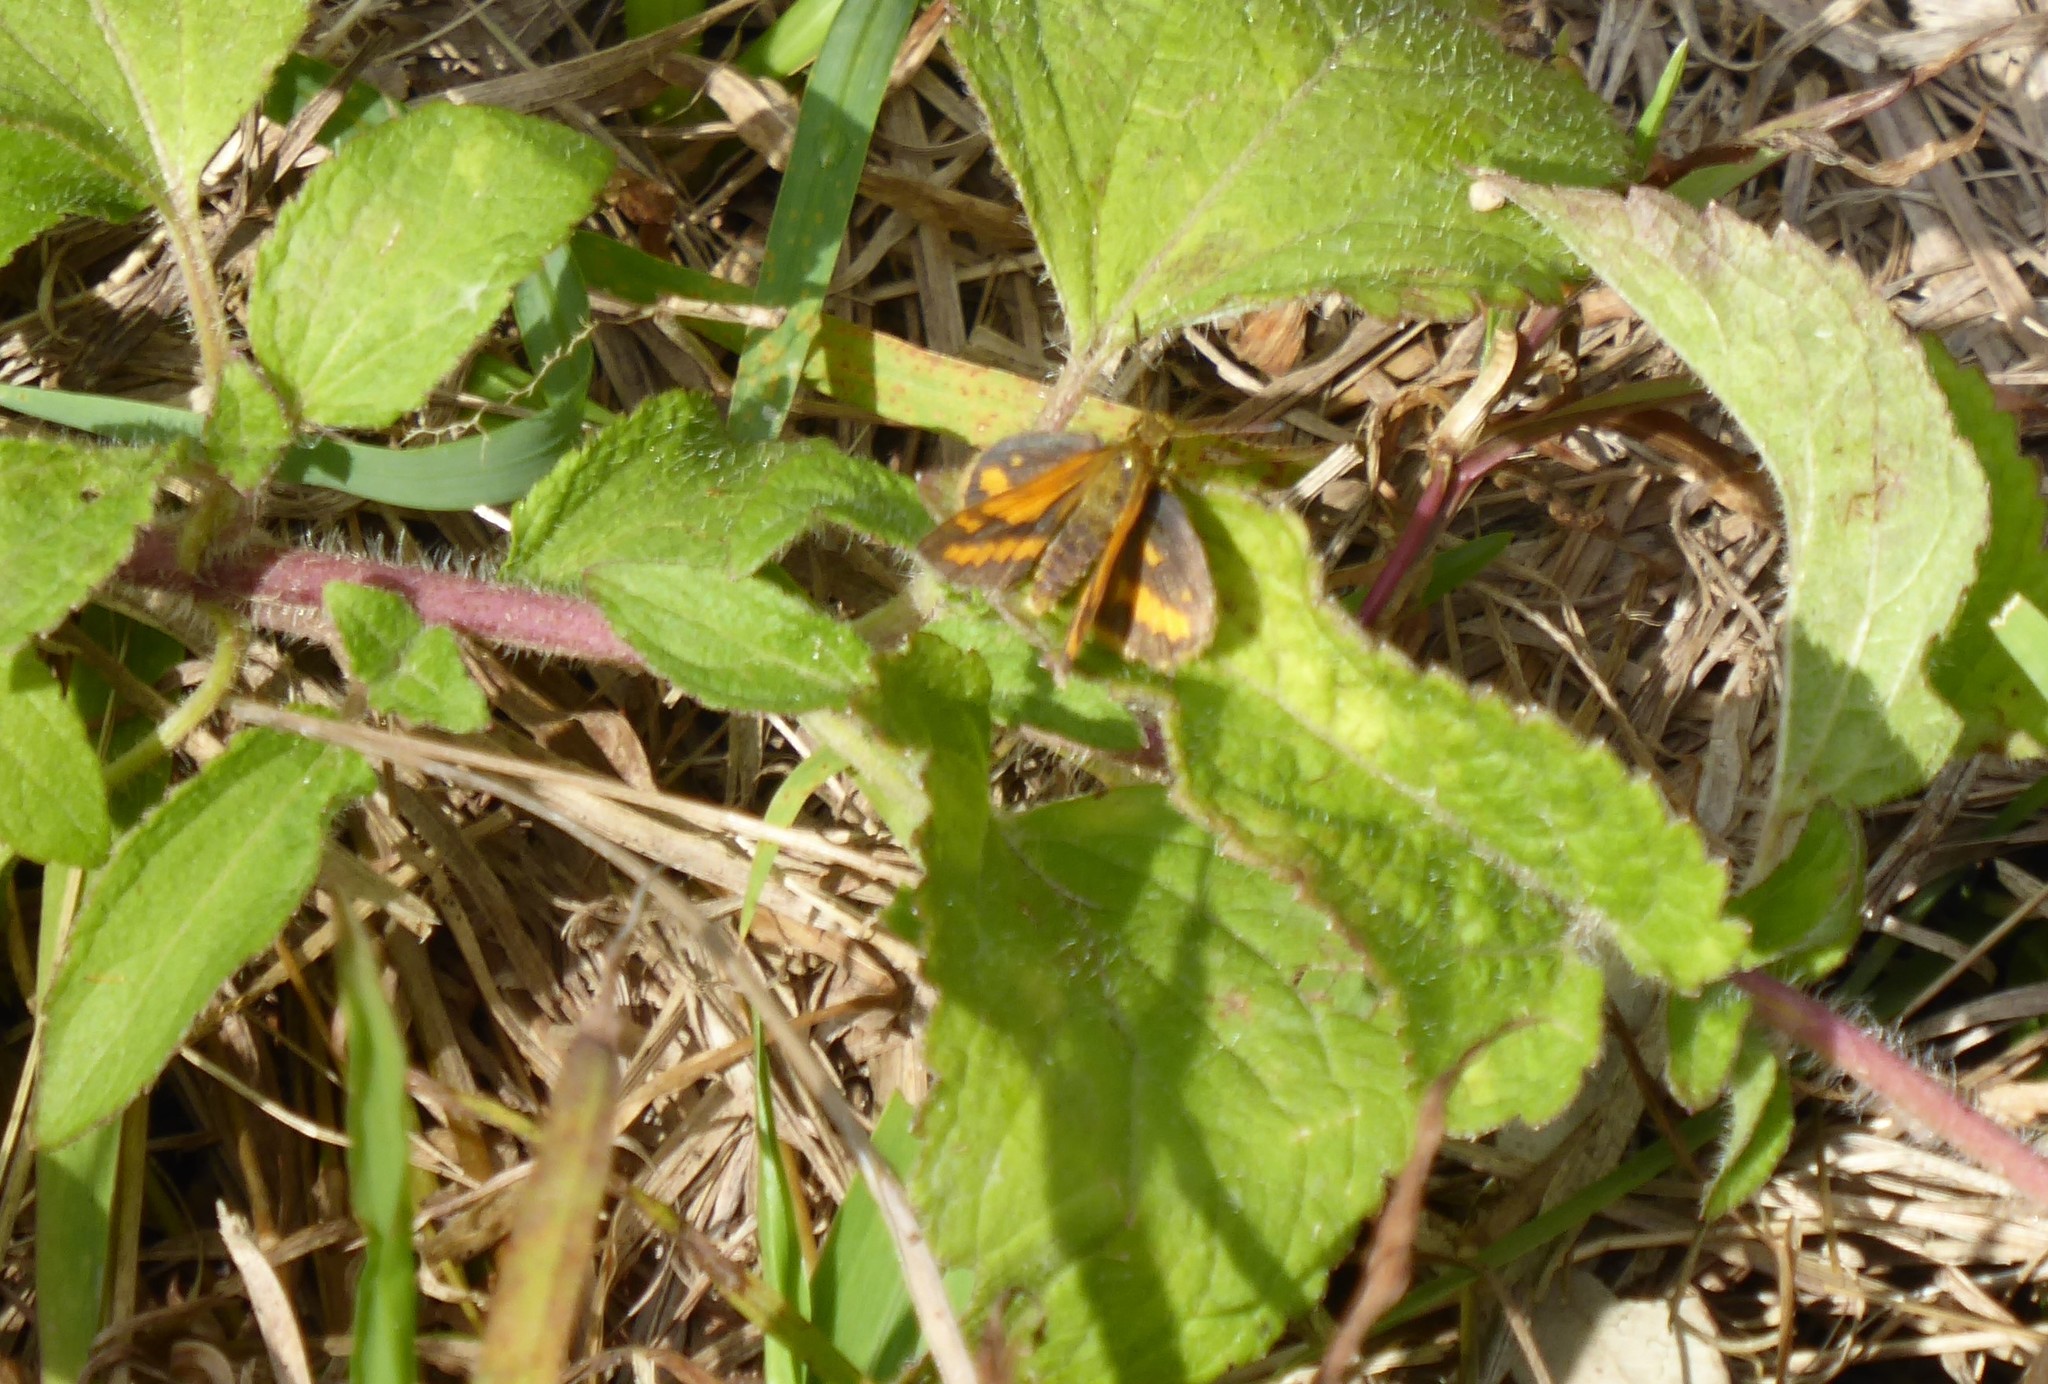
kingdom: Animalia
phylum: Arthropoda
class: Insecta
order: Lepidoptera
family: Hesperiidae
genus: Suniana
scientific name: Suniana sunias
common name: Wide-brand grass-dart
